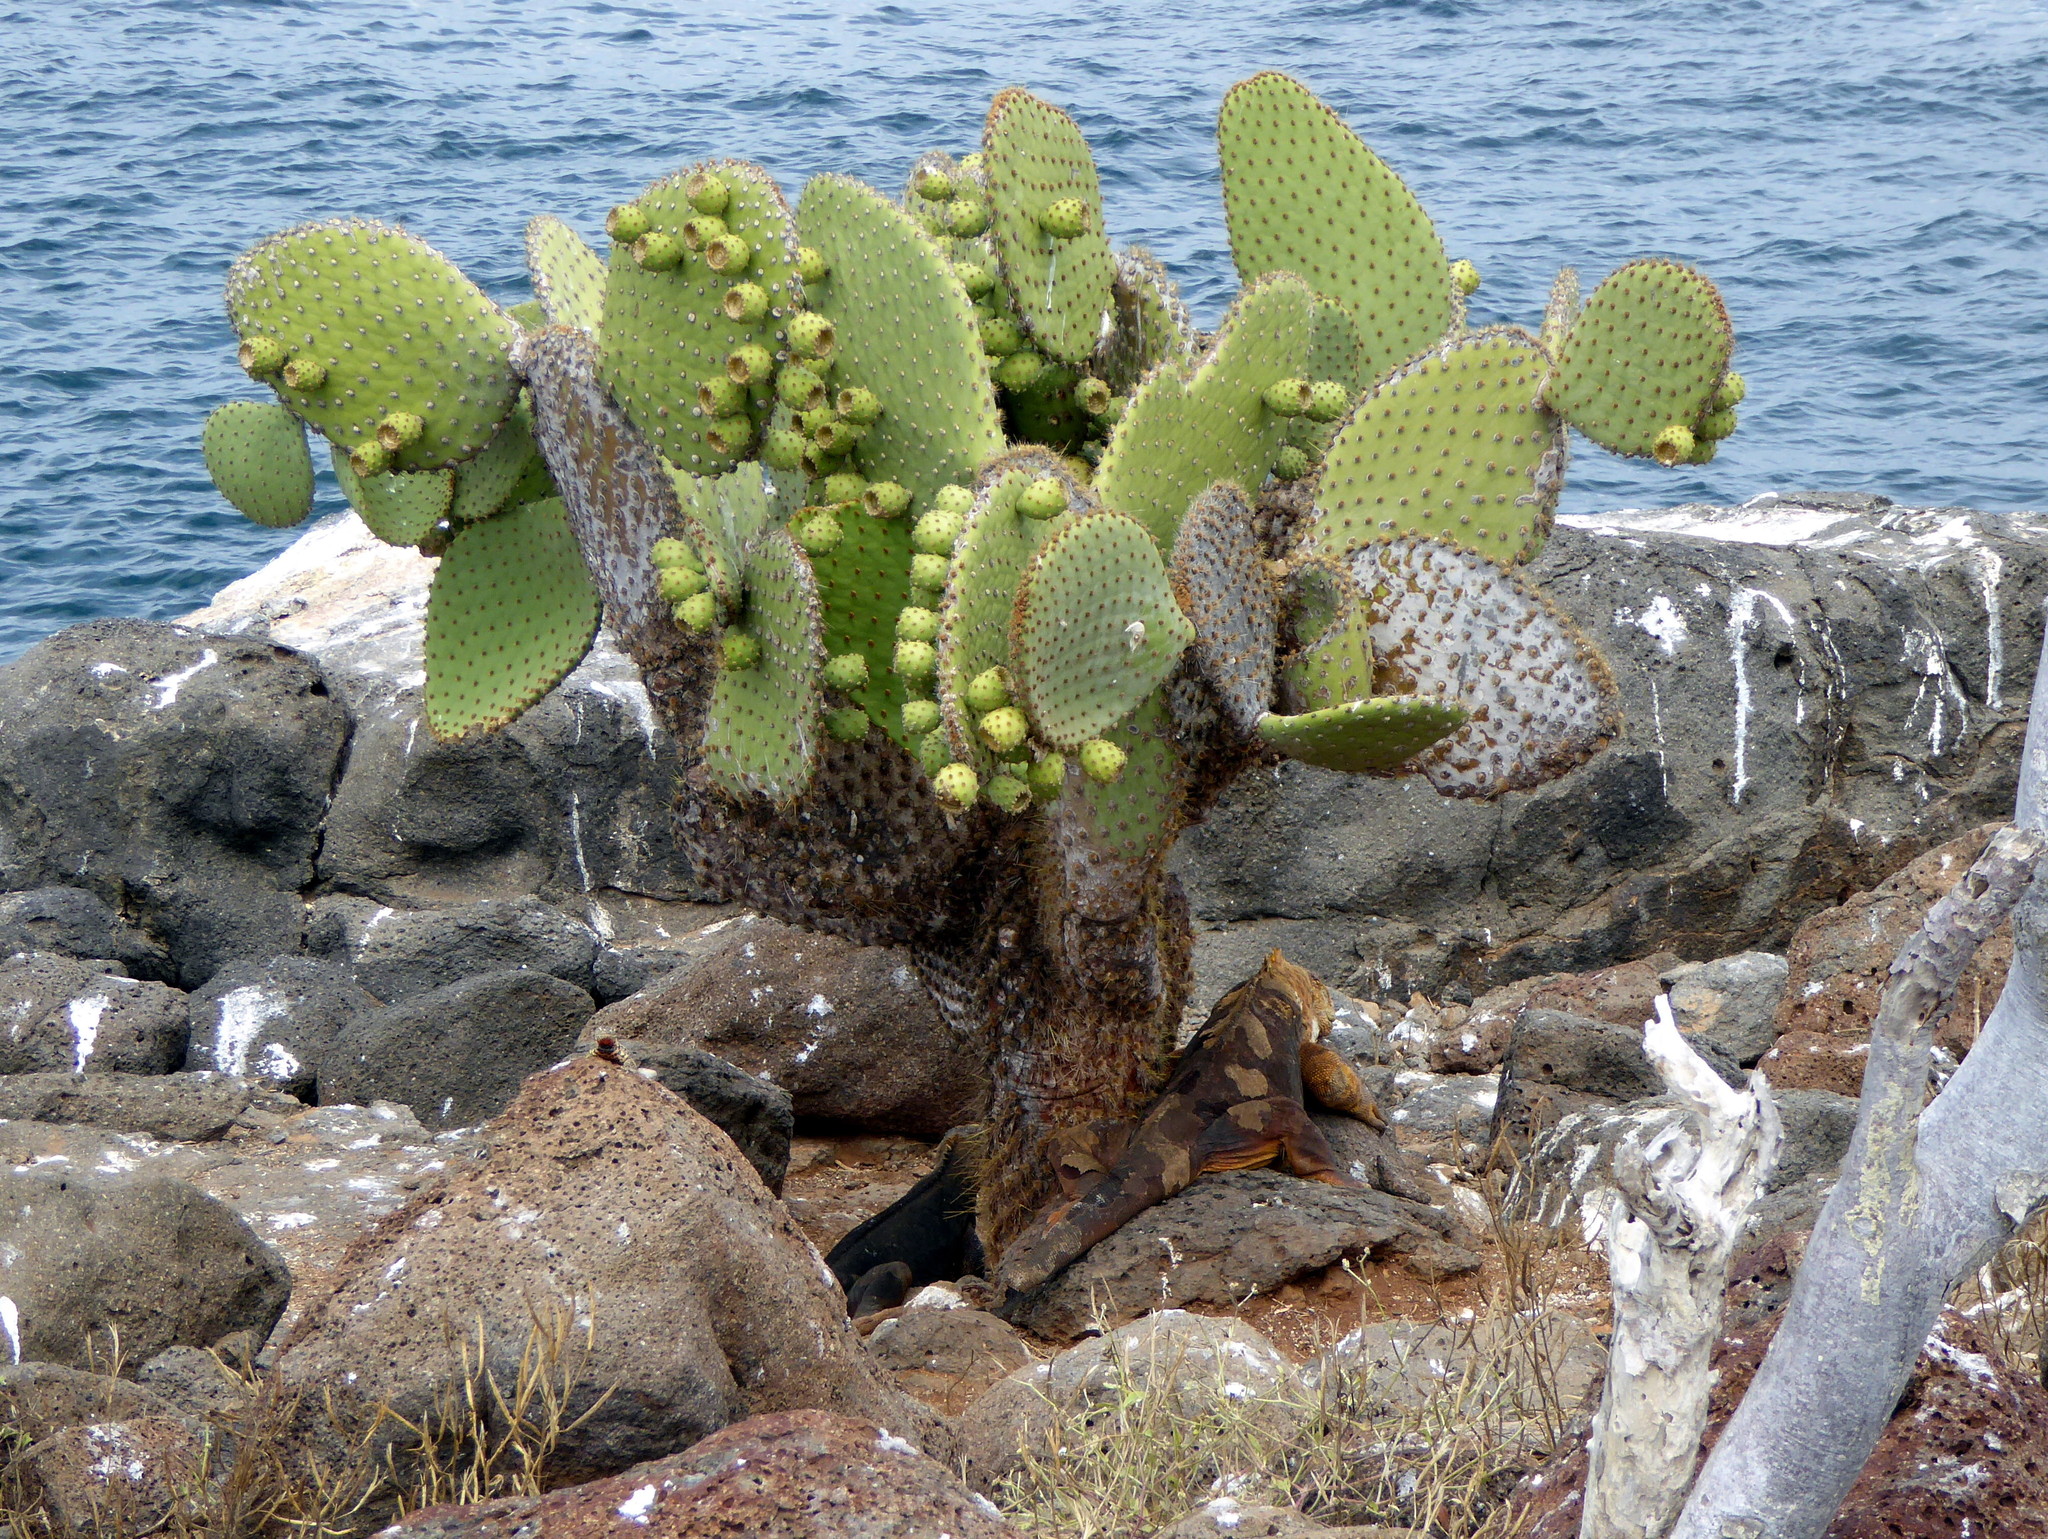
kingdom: Plantae
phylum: Tracheophyta
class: Magnoliopsida
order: Caryophyllales
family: Cactaceae
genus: Opuntia
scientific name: Opuntia galapageia
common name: Galápagos prickly pear
